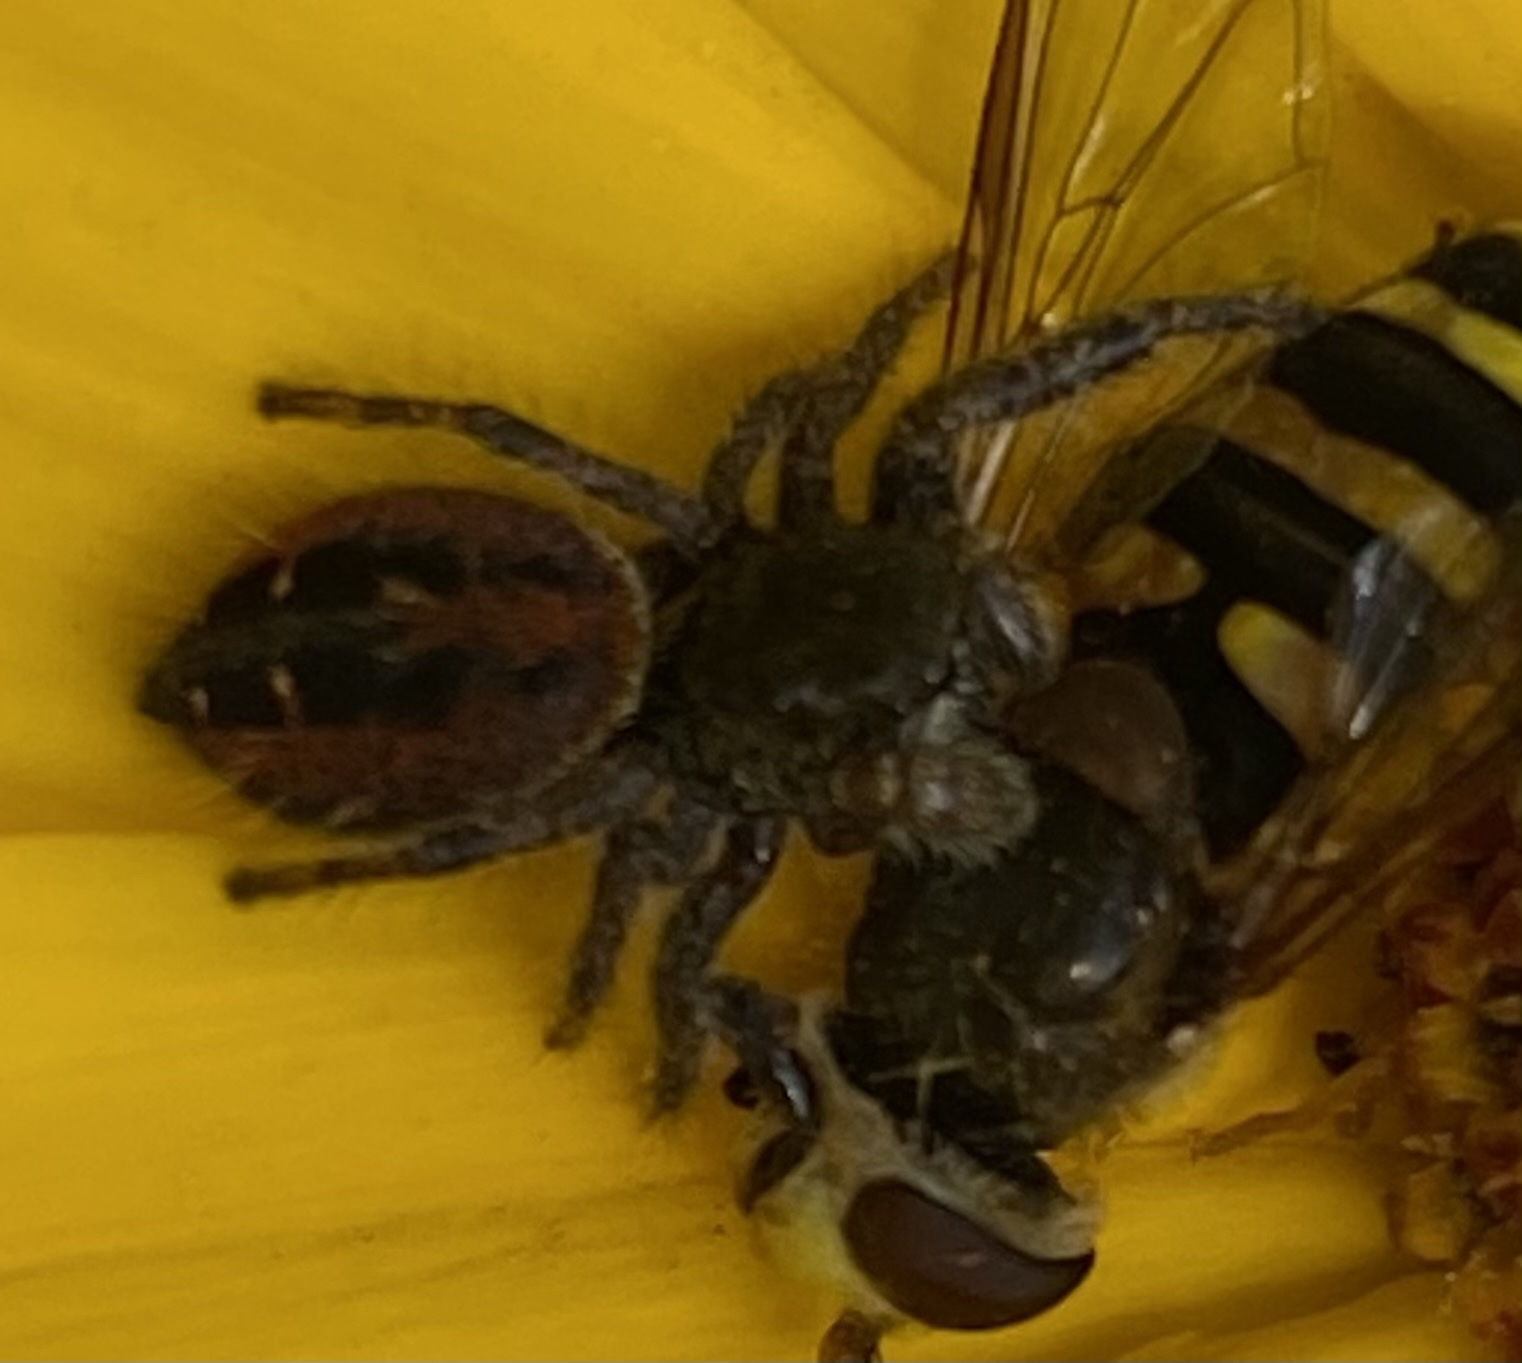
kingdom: Animalia
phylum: Arthropoda
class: Arachnida
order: Araneae
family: Salticidae
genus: Phidippus
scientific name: Phidippus johnsoni
